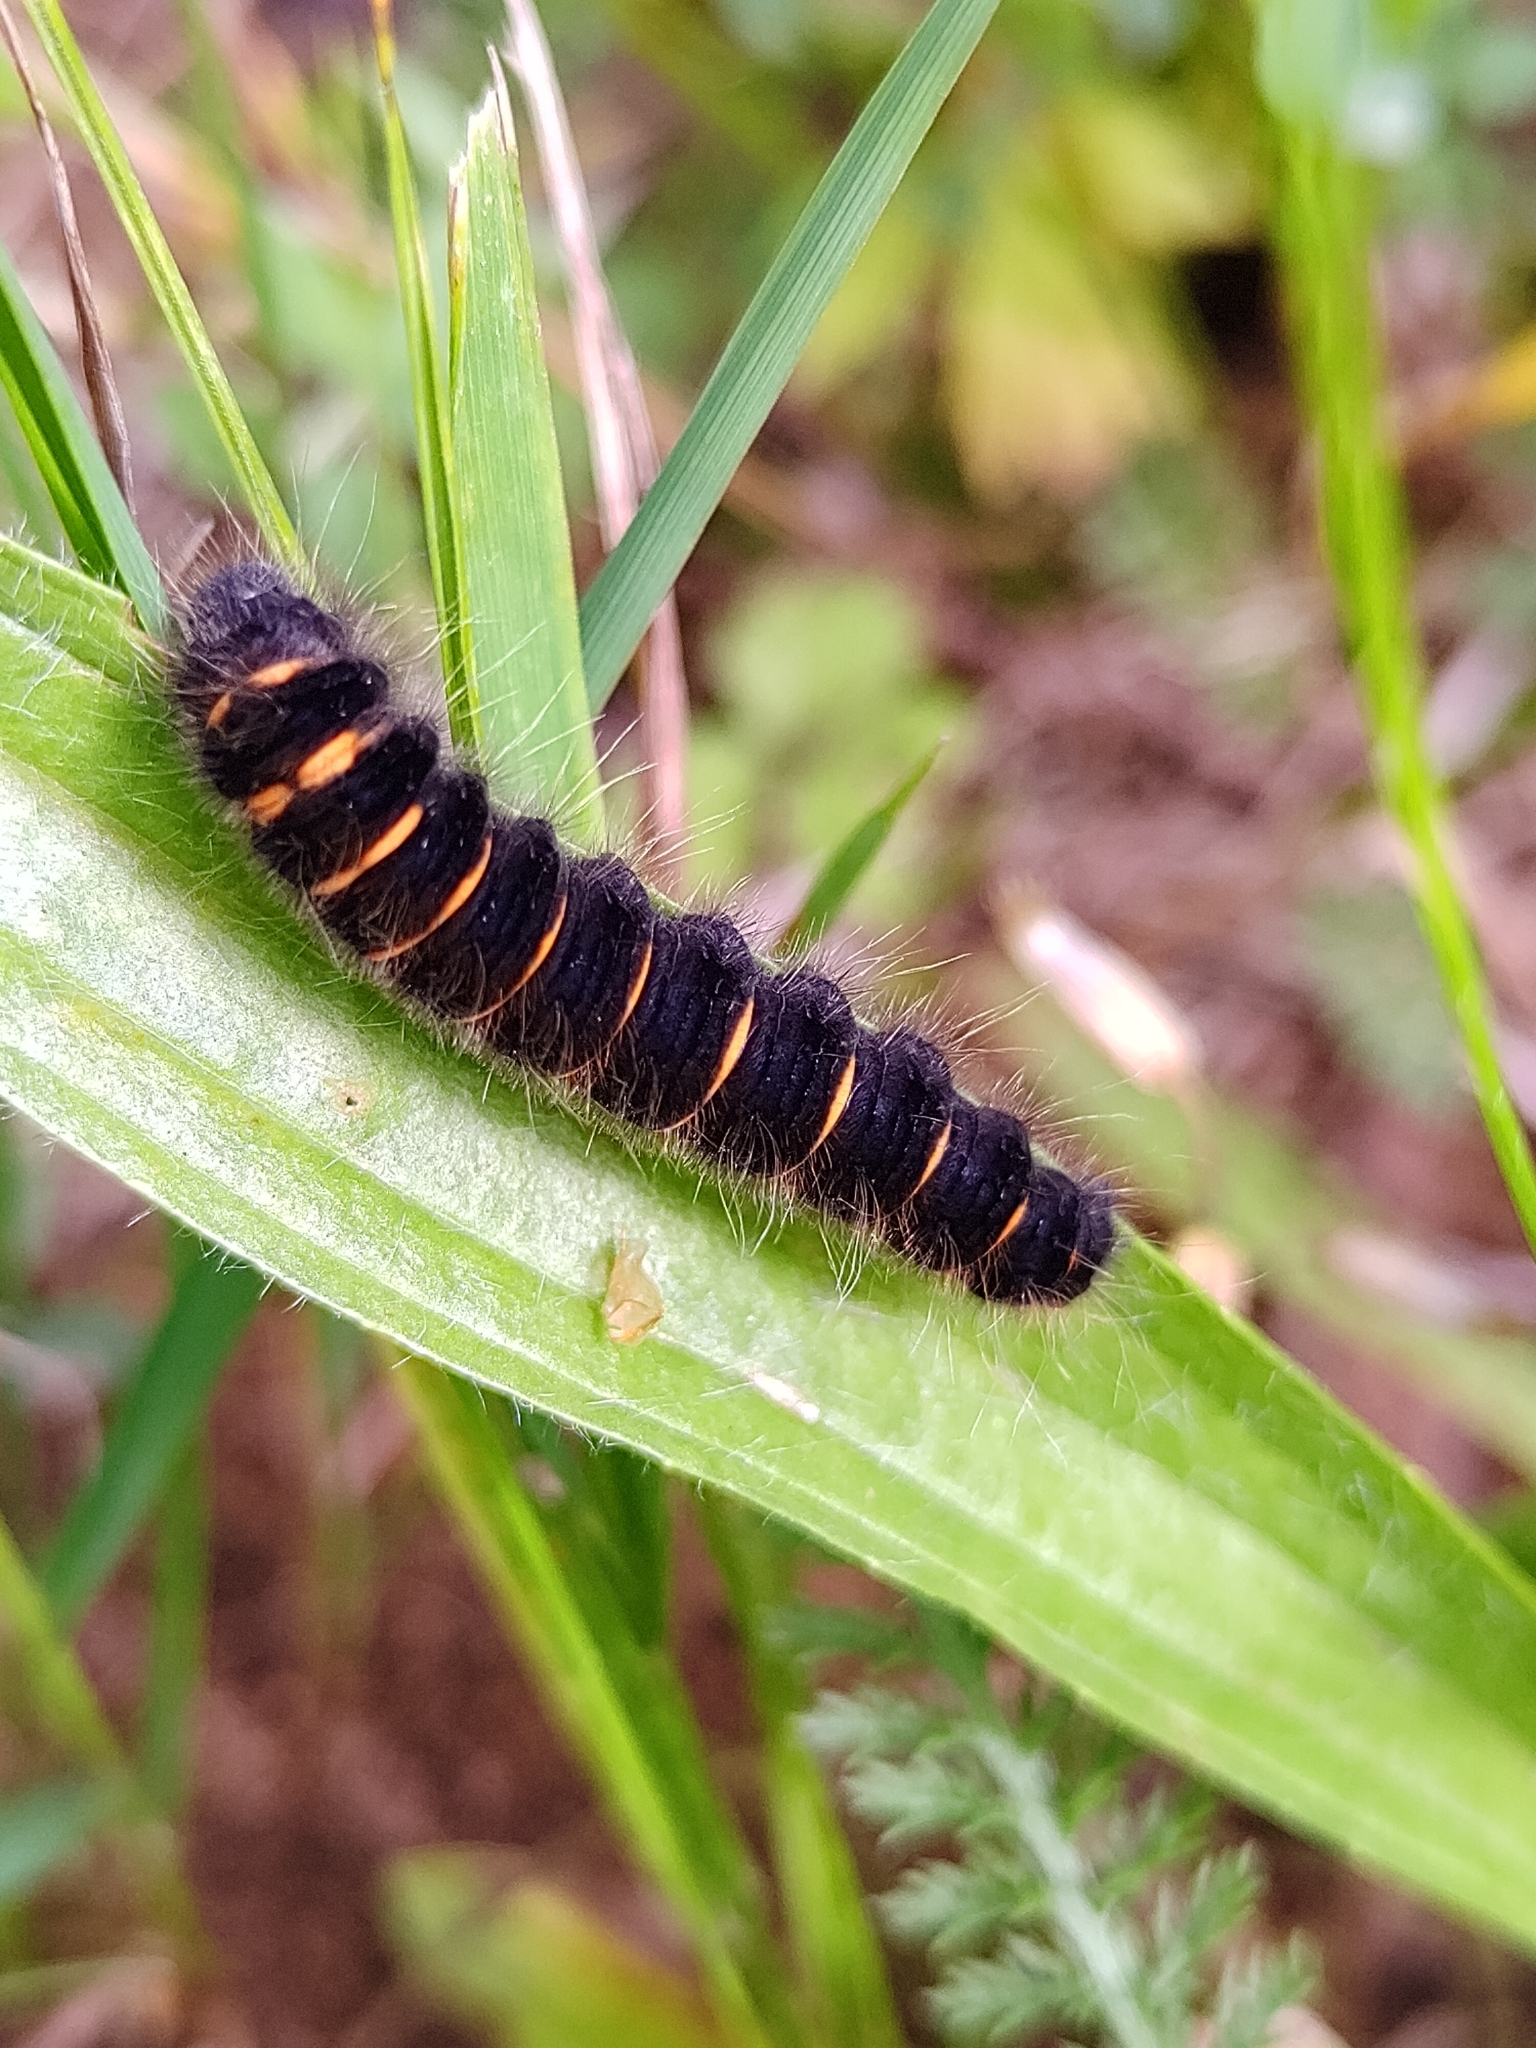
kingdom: Animalia
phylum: Arthropoda
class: Insecta
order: Lepidoptera
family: Lasiocampidae
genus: Macrothylacia
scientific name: Macrothylacia rubi
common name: Fox moth
